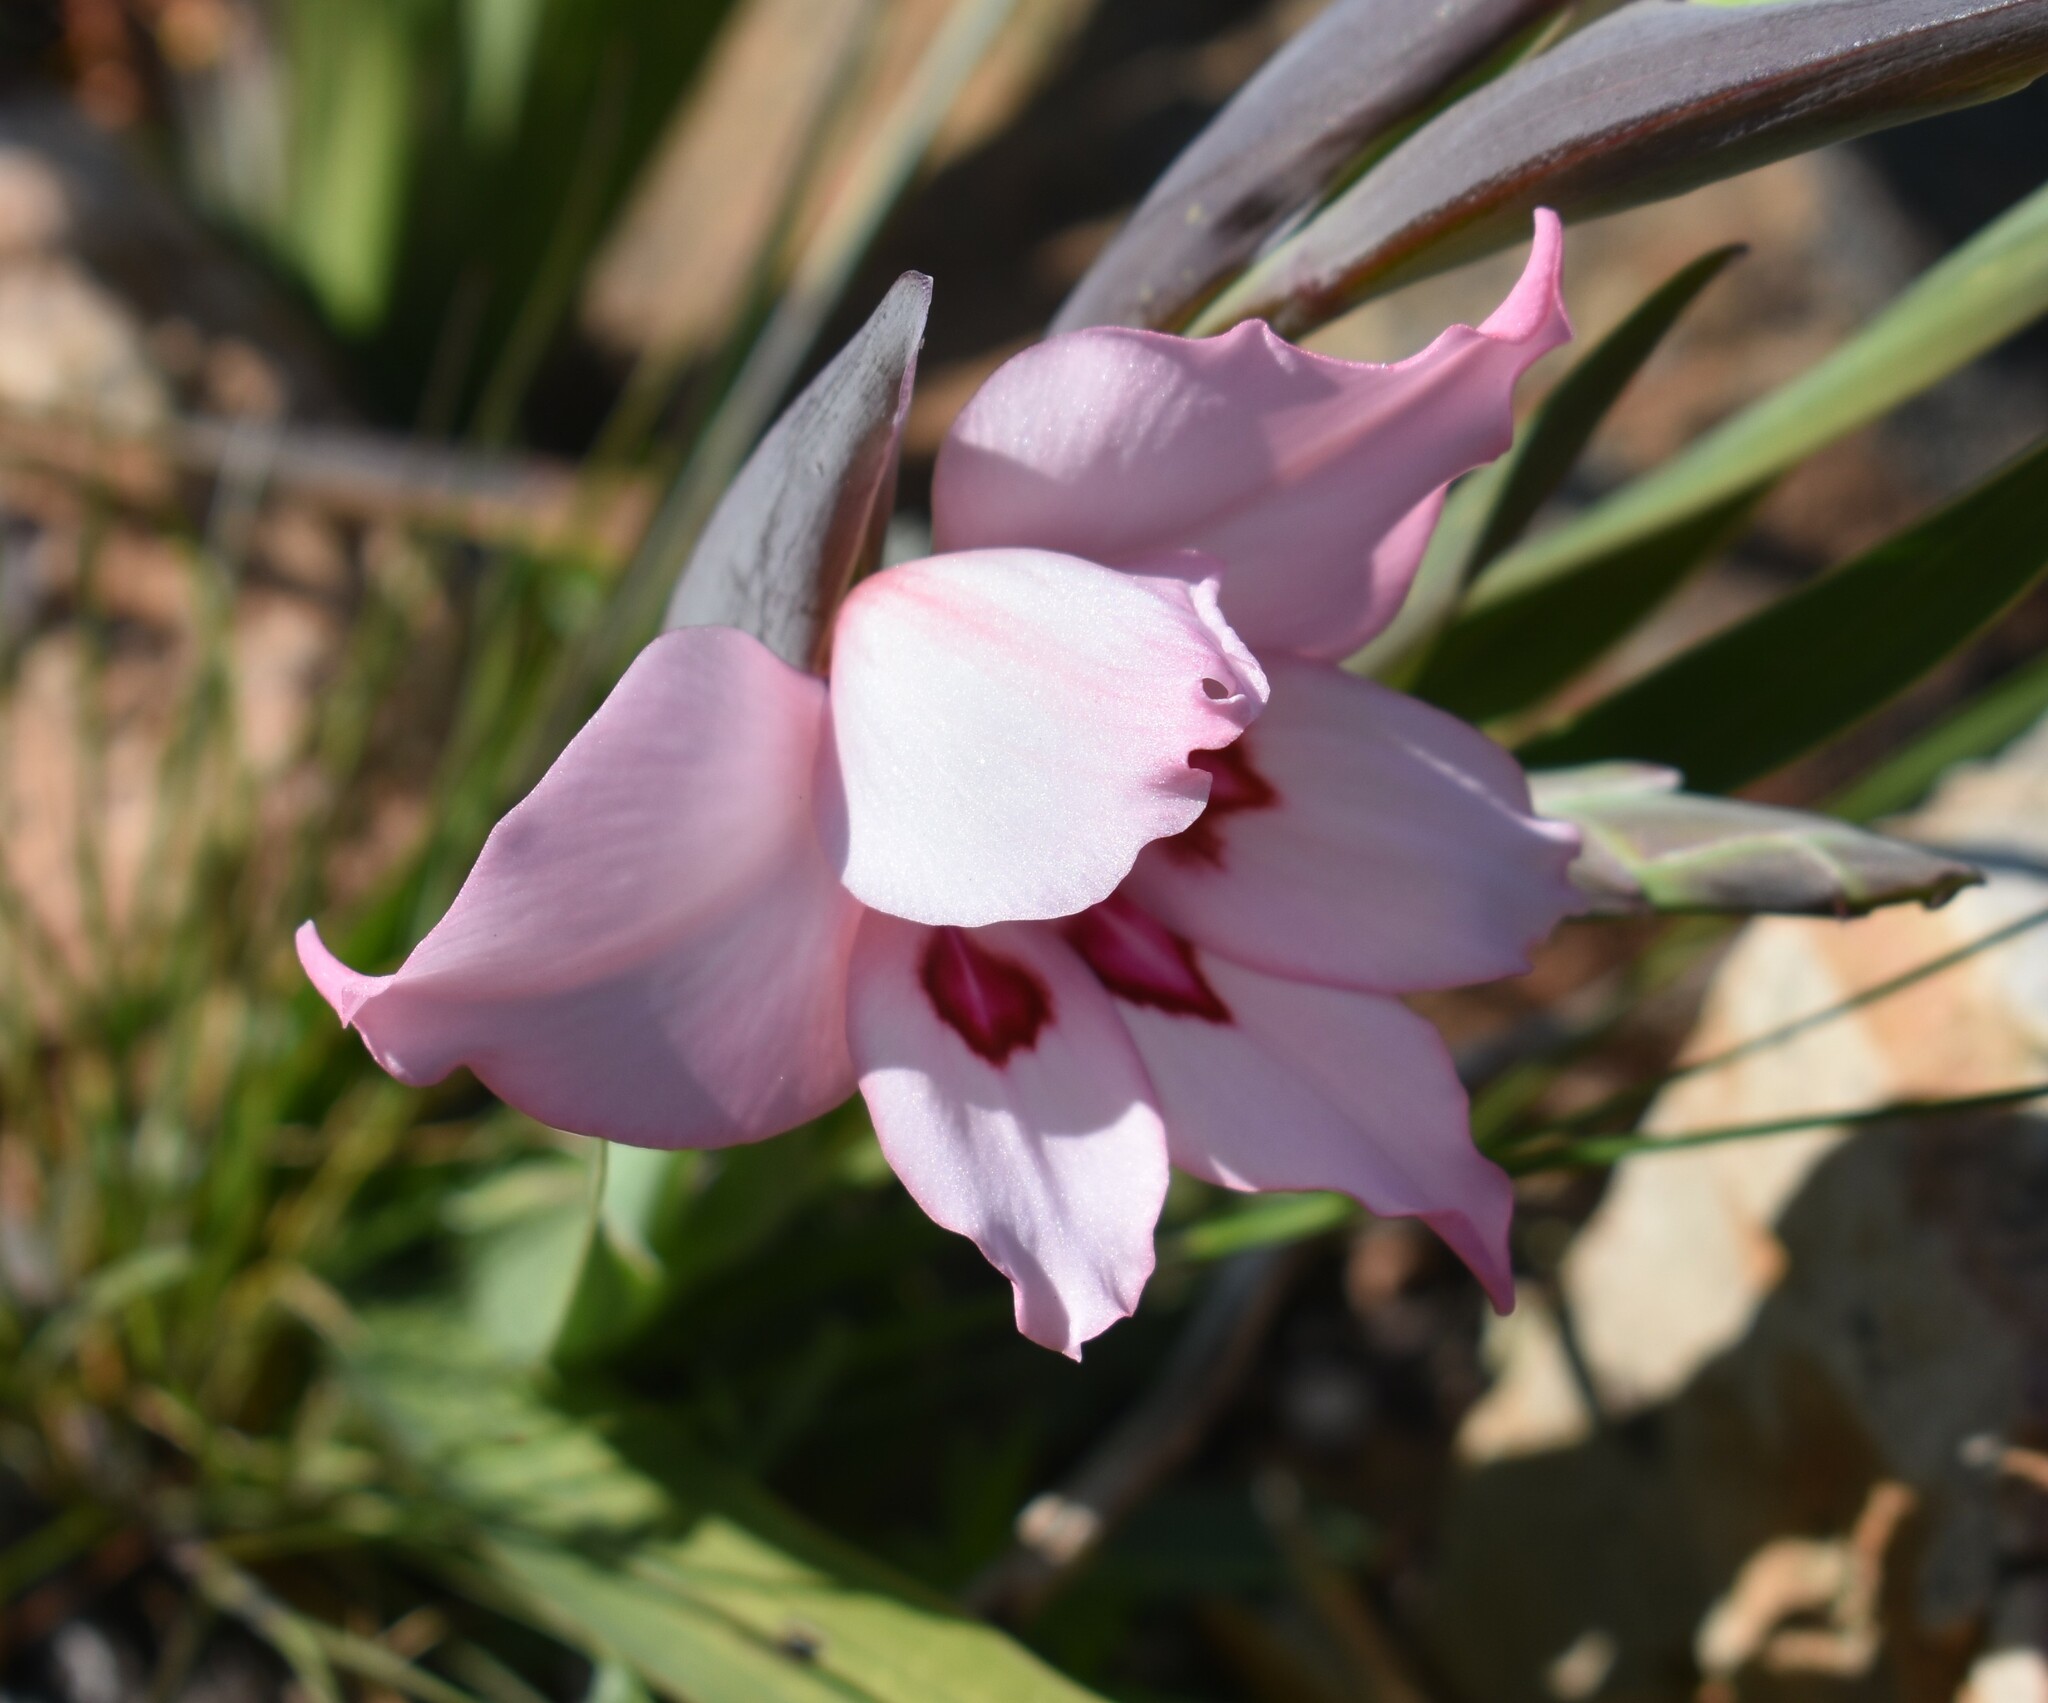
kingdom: Plantae
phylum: Tracheophyta
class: Liliopsida
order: Asparagales
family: Iridaceae
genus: Gladiolus
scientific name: Gladiolus carneus
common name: Painted-lady
